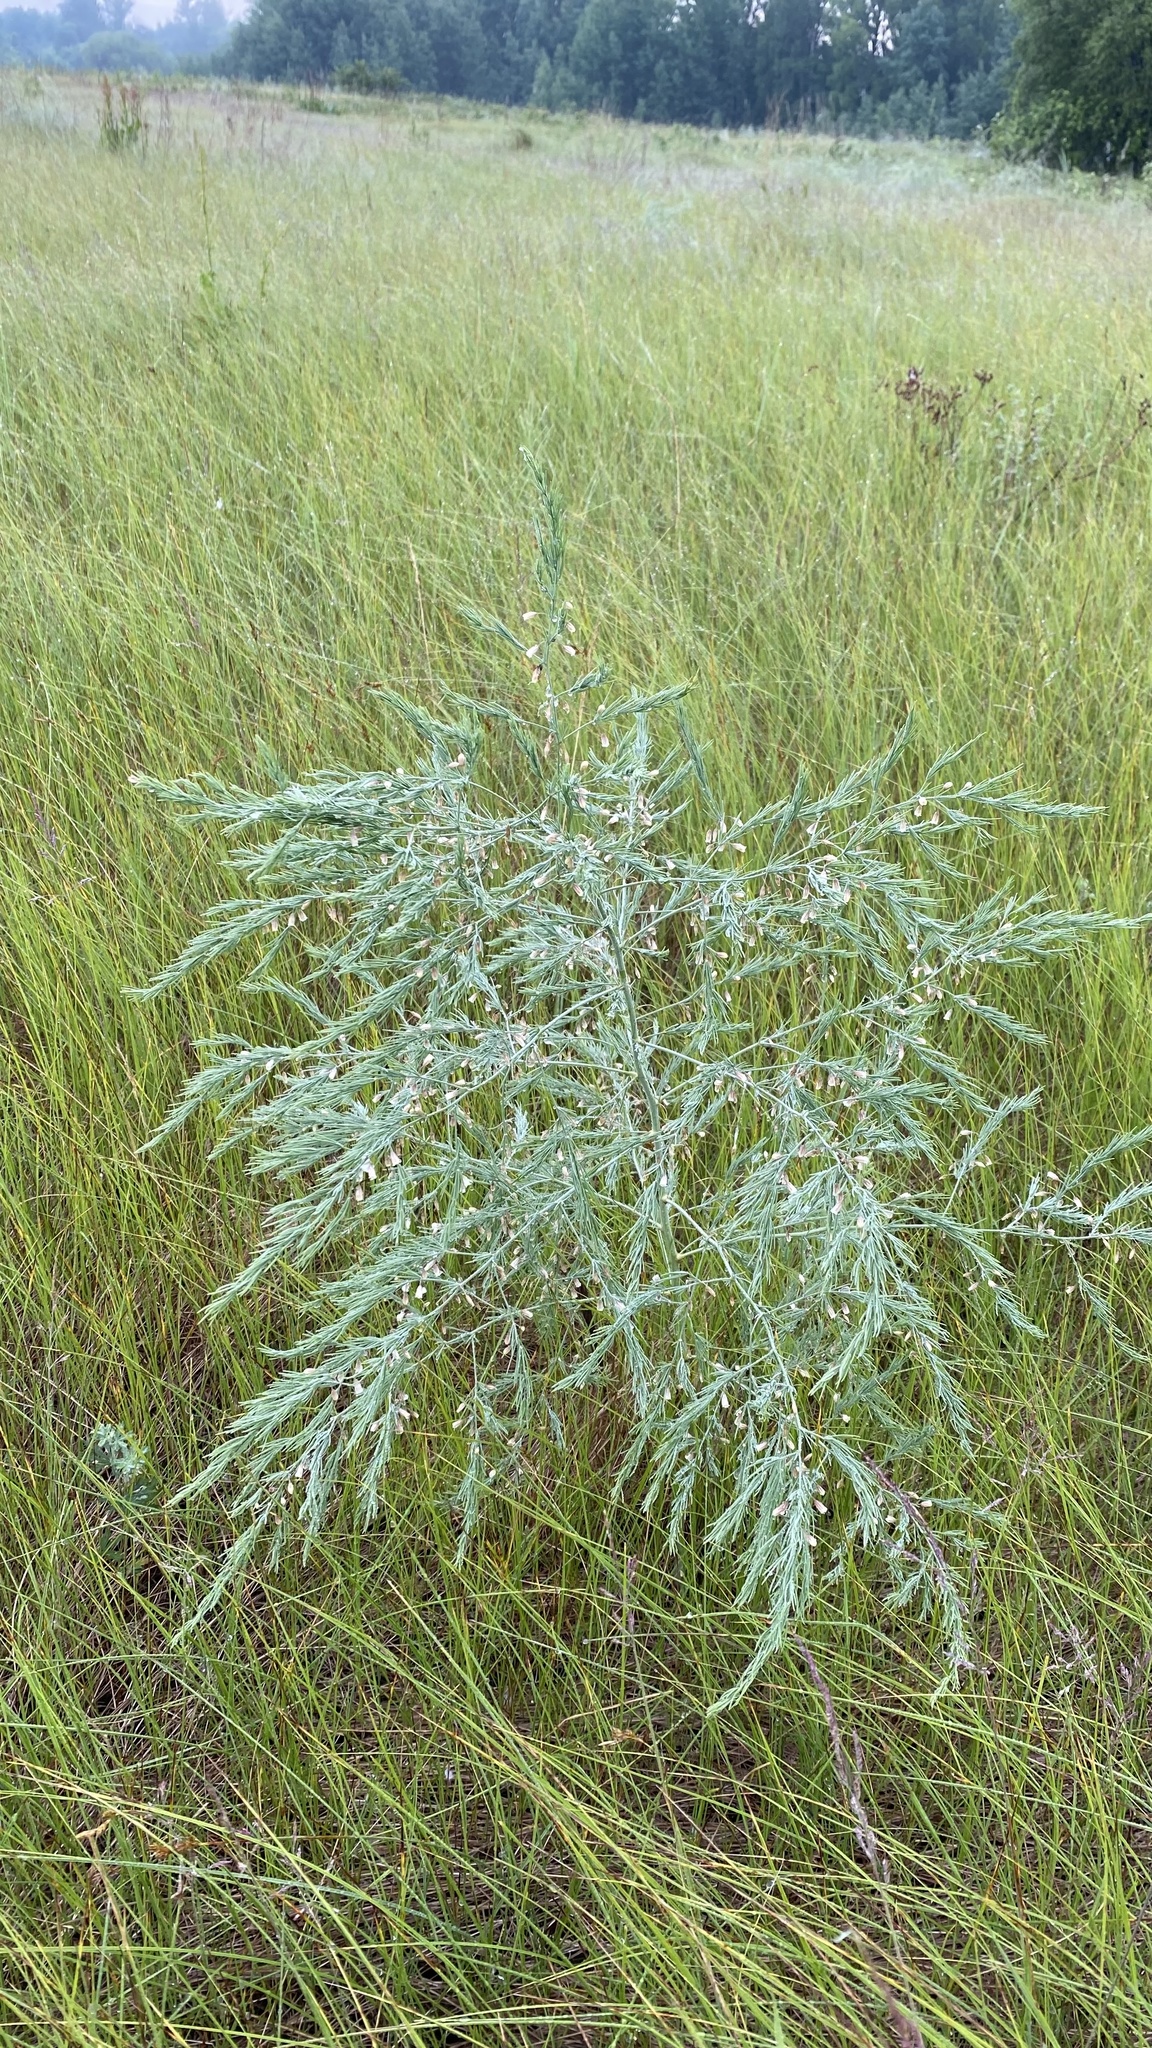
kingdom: Plantae
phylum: Tracheophyta
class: Liliopsida
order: Asparagales
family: Asparagaceae
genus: Asparagus
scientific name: Asparagus officinalis
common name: Garden asparagus
